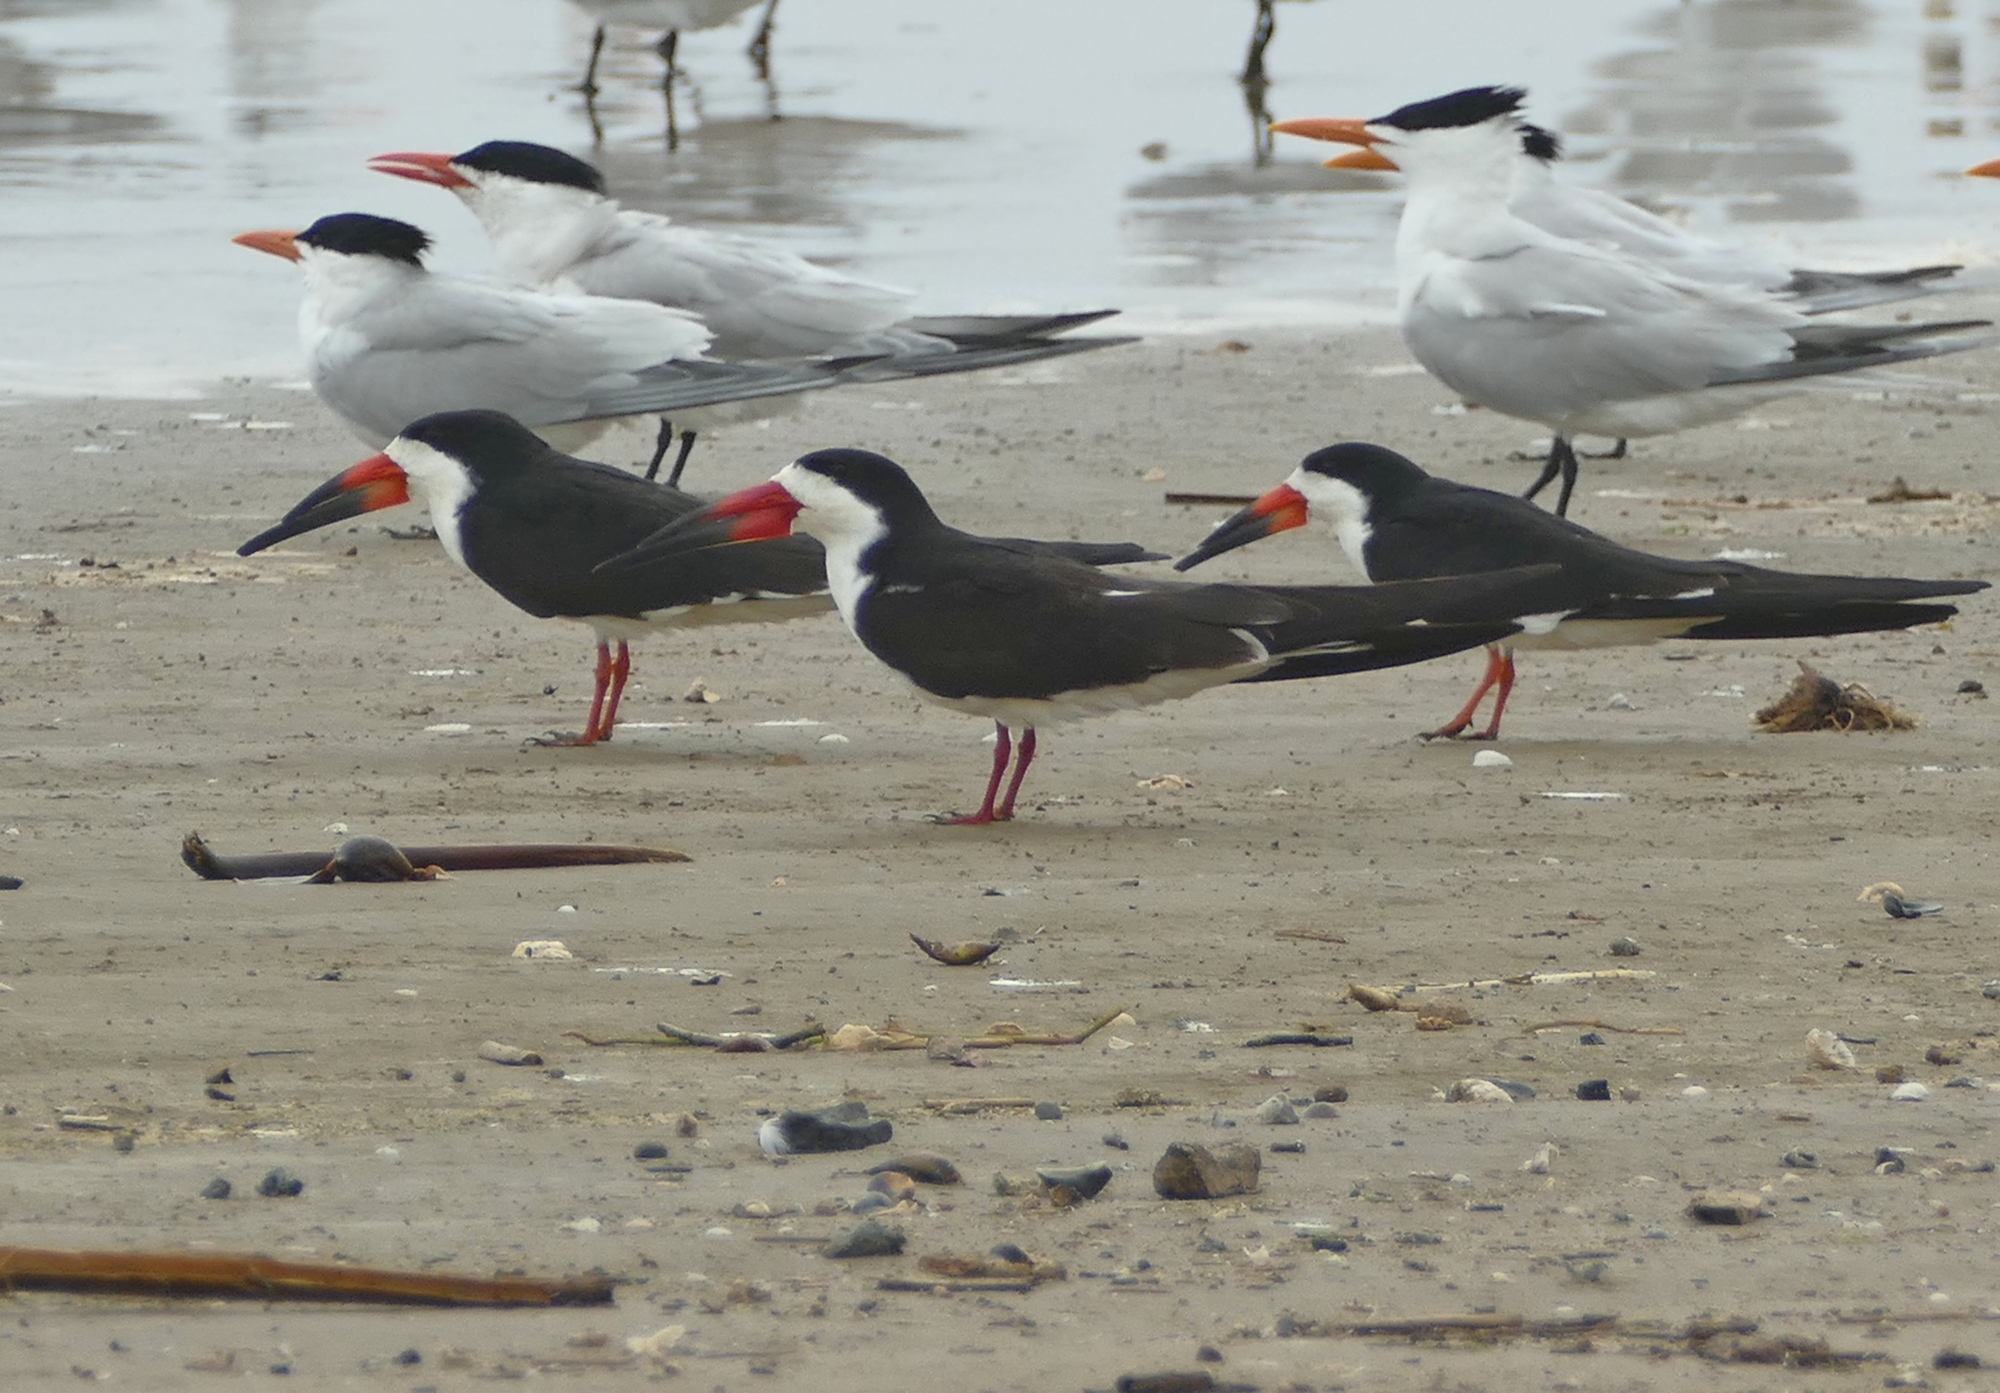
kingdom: Animalia
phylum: Chordata
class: Aves
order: Charadriiformes
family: Laridae
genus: Rynchops
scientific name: Rynchops niger
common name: Black skimmer
